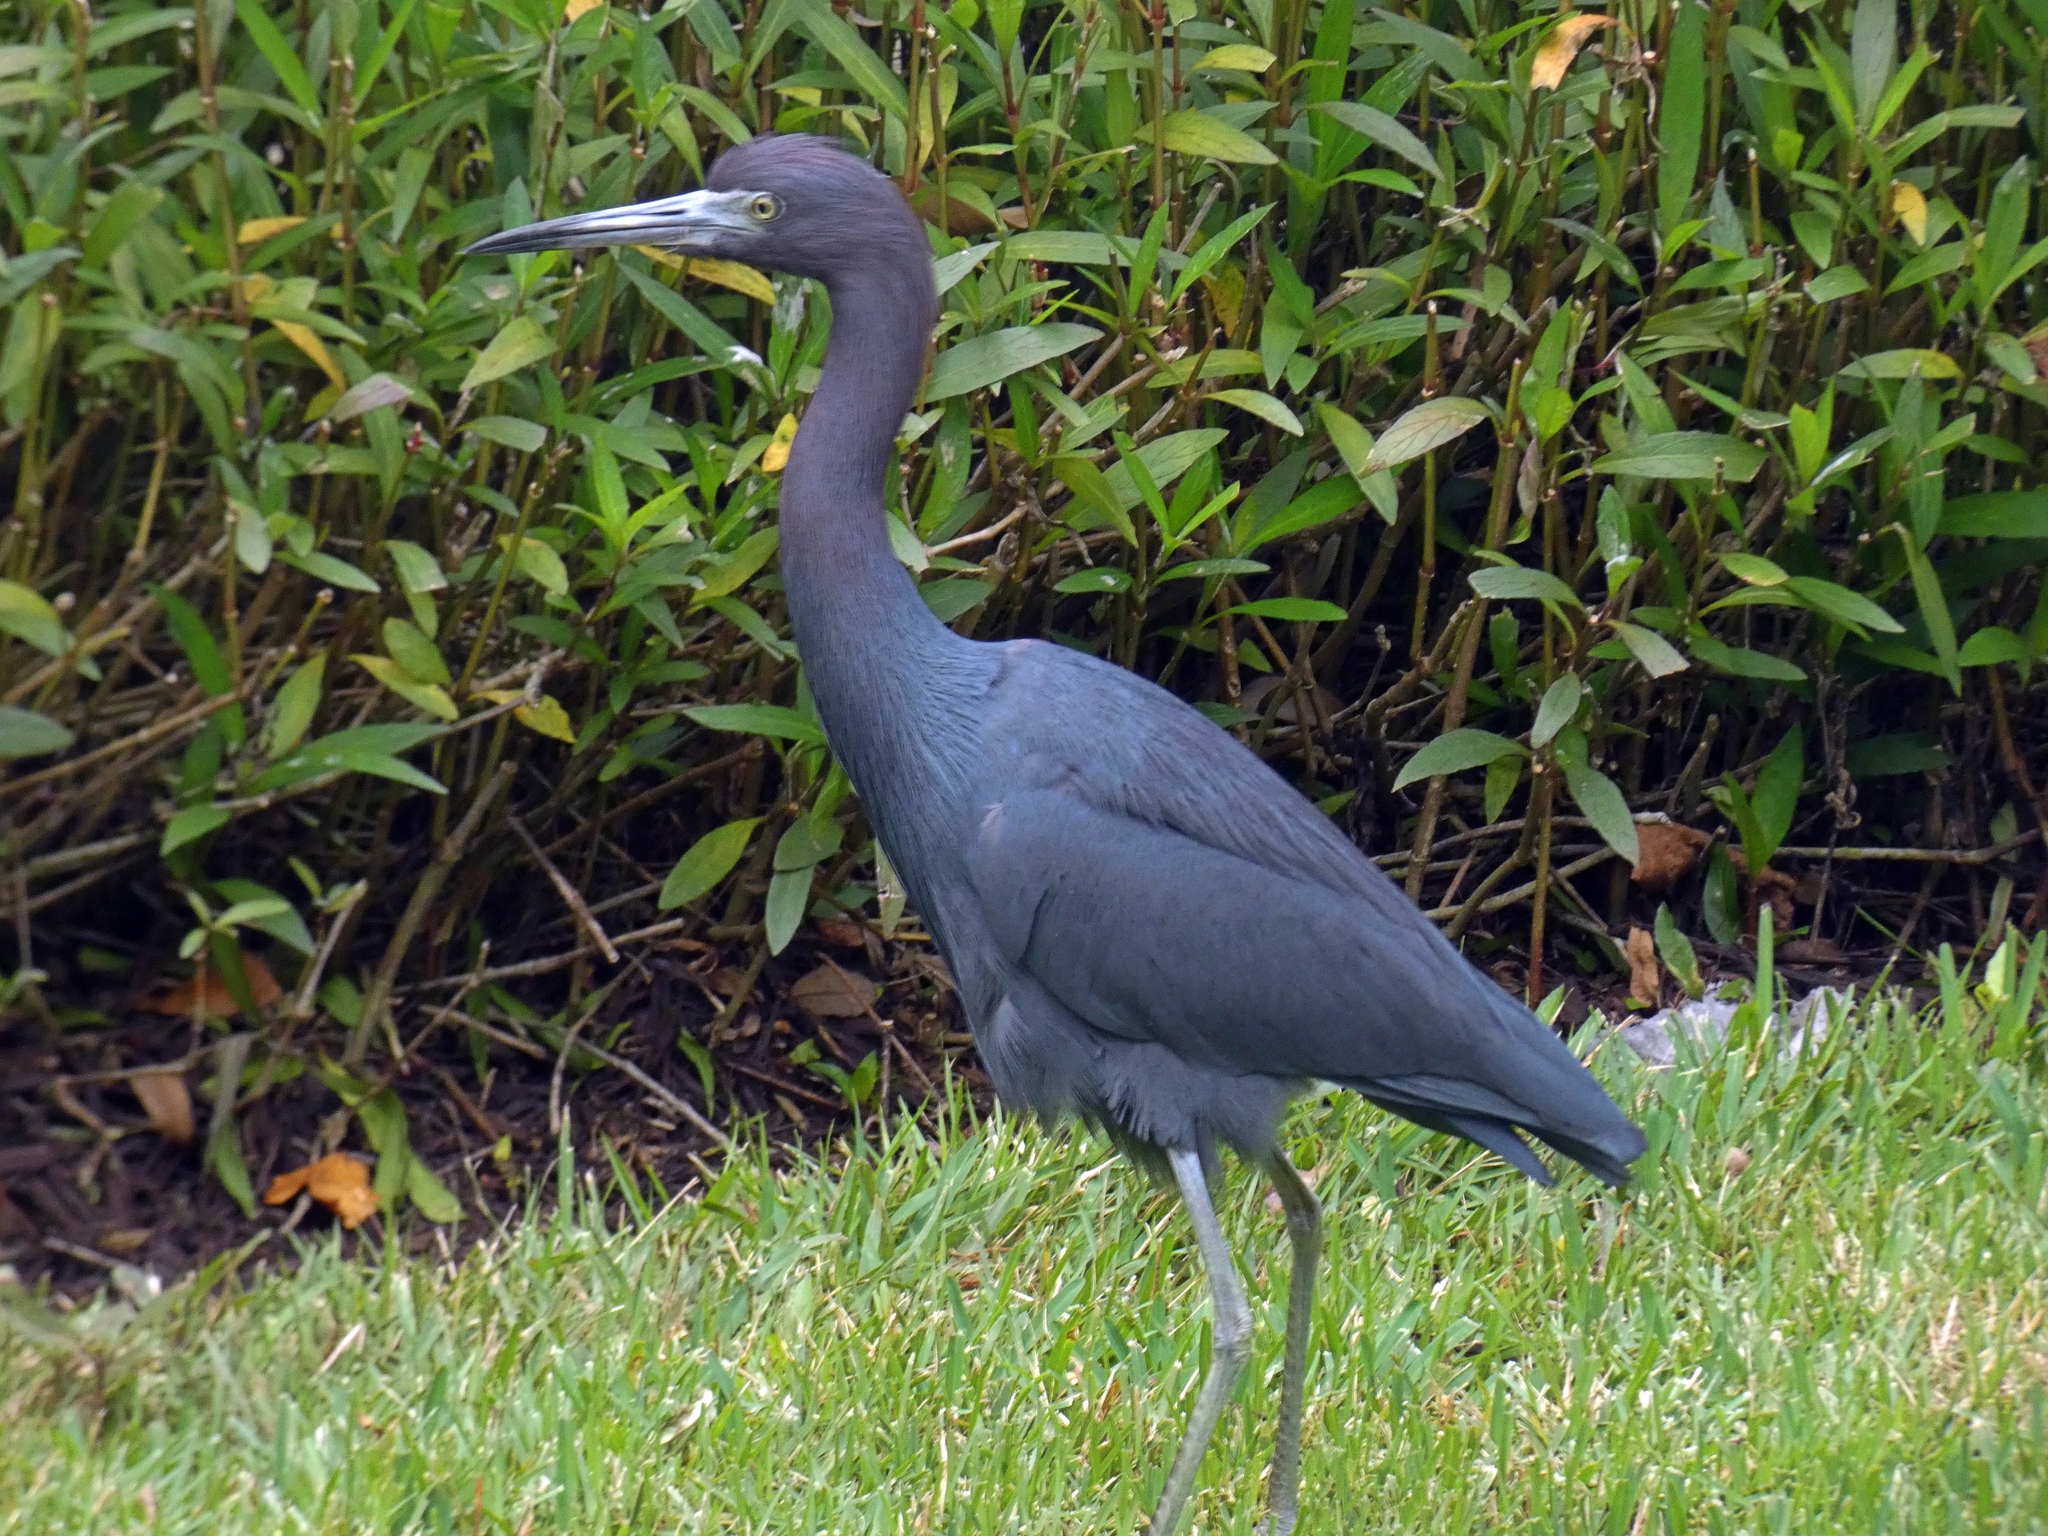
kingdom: Animalia
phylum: Chordata
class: Aves
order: Pelecaniformes
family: Ardeidae
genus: Egretta
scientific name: Egretta caerulea
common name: Little blue heron
